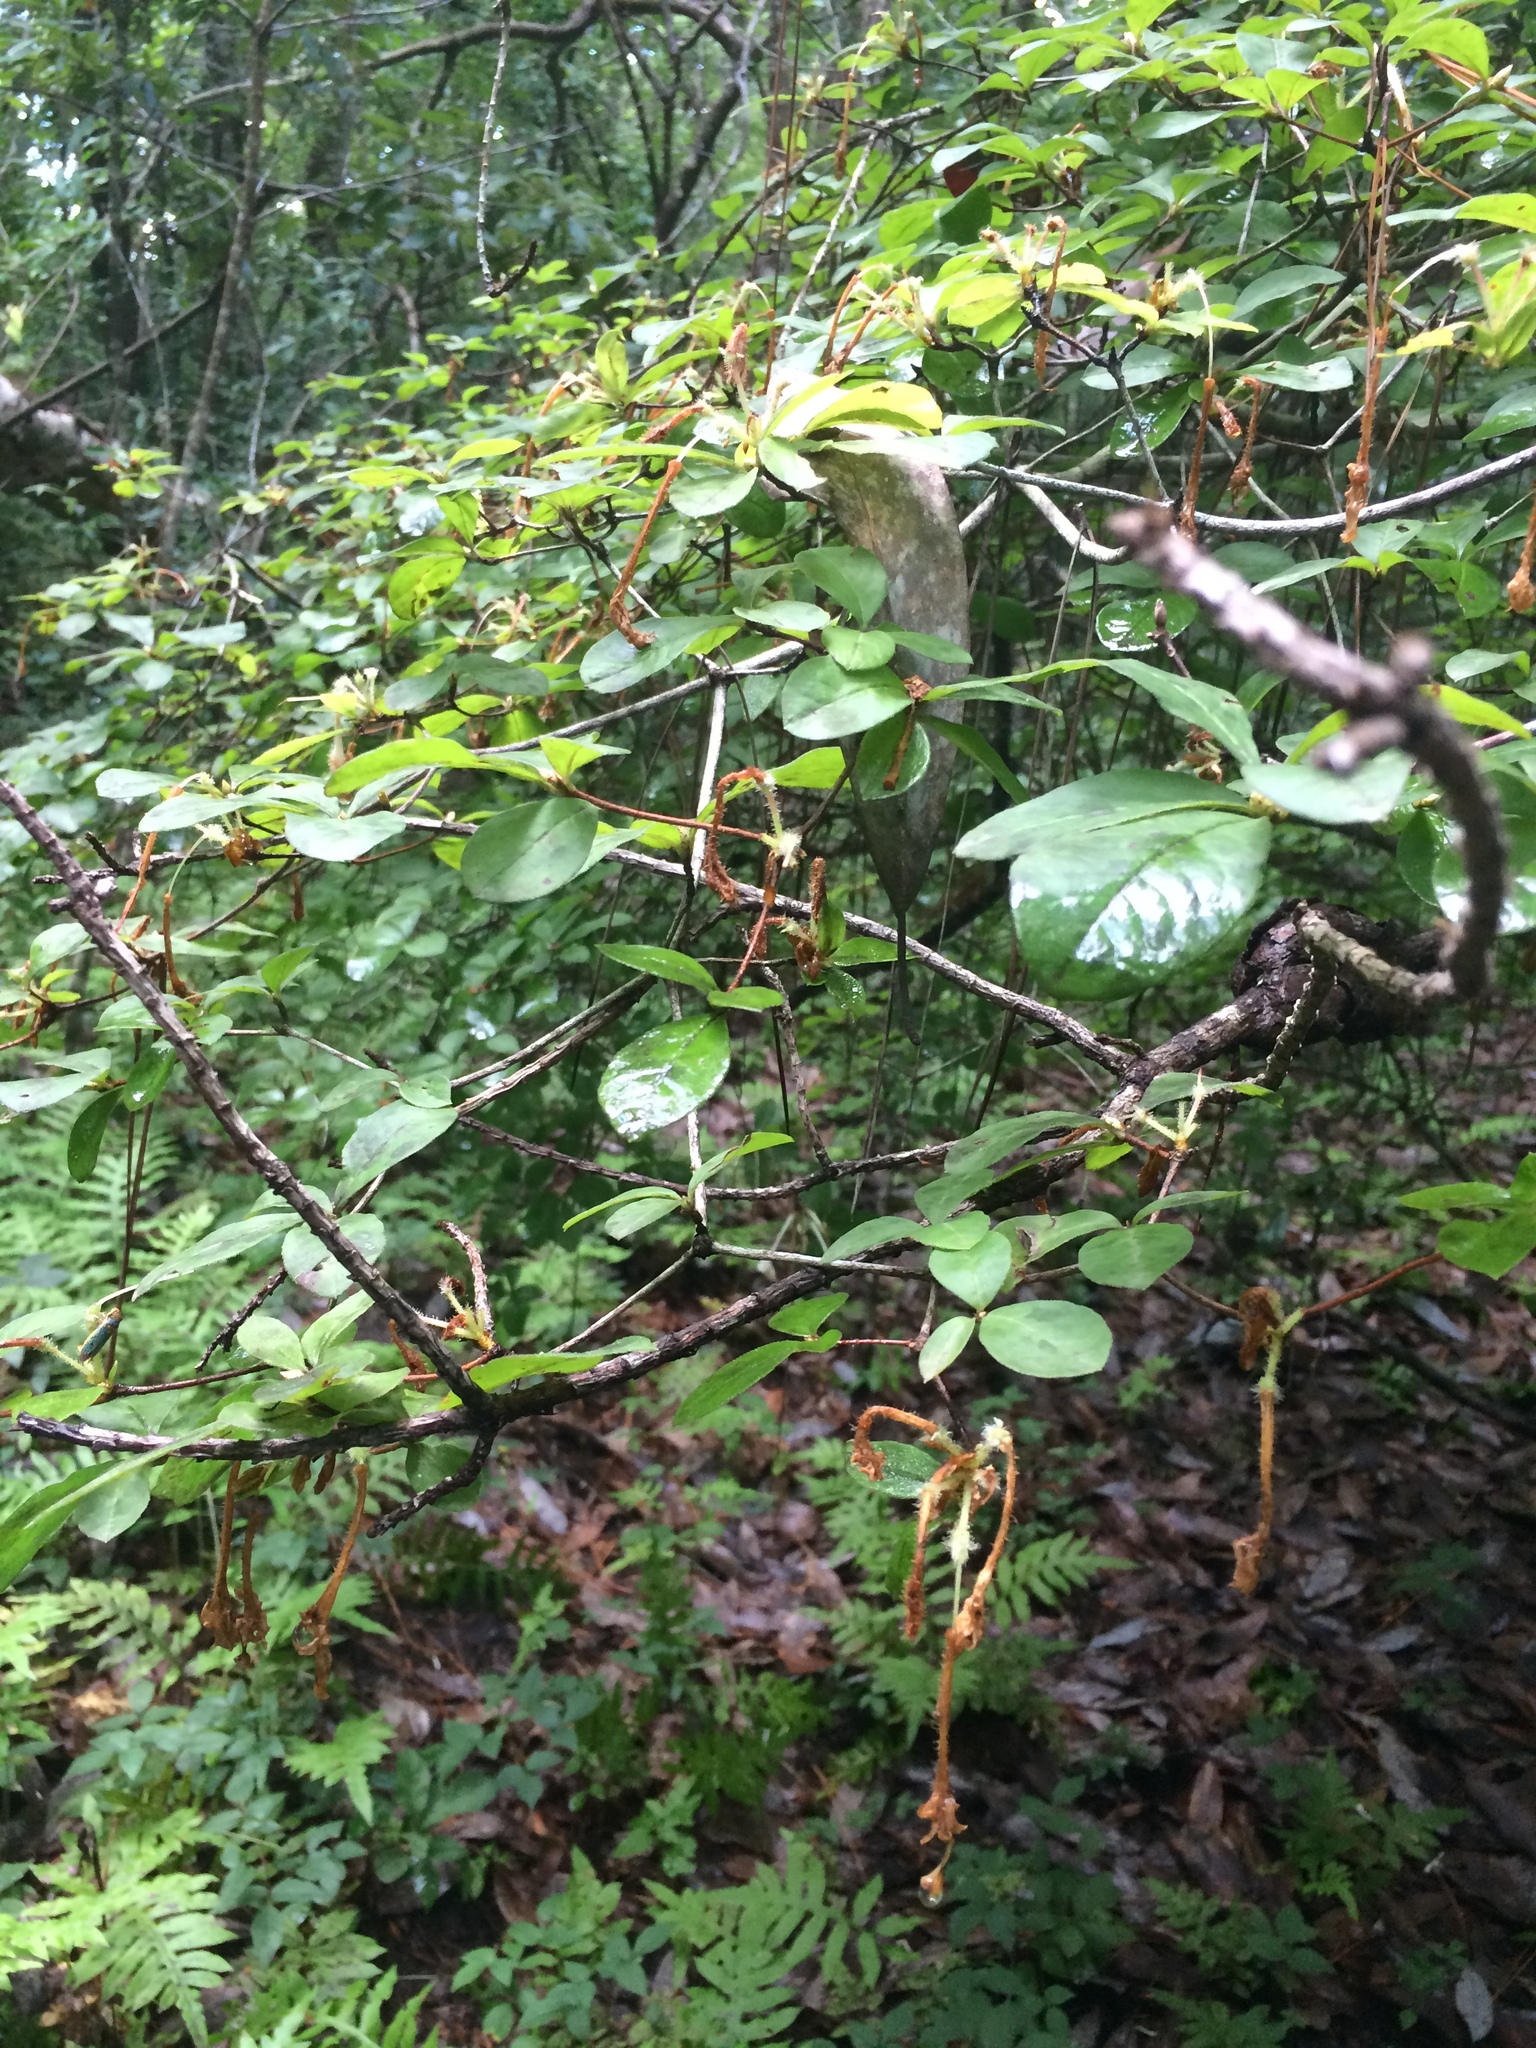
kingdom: Plantae
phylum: Tracheophyta
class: Magnoliopsida
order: Ericales
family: Ericaceae
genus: Rhododendron
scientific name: Rhododendron serrulatum
